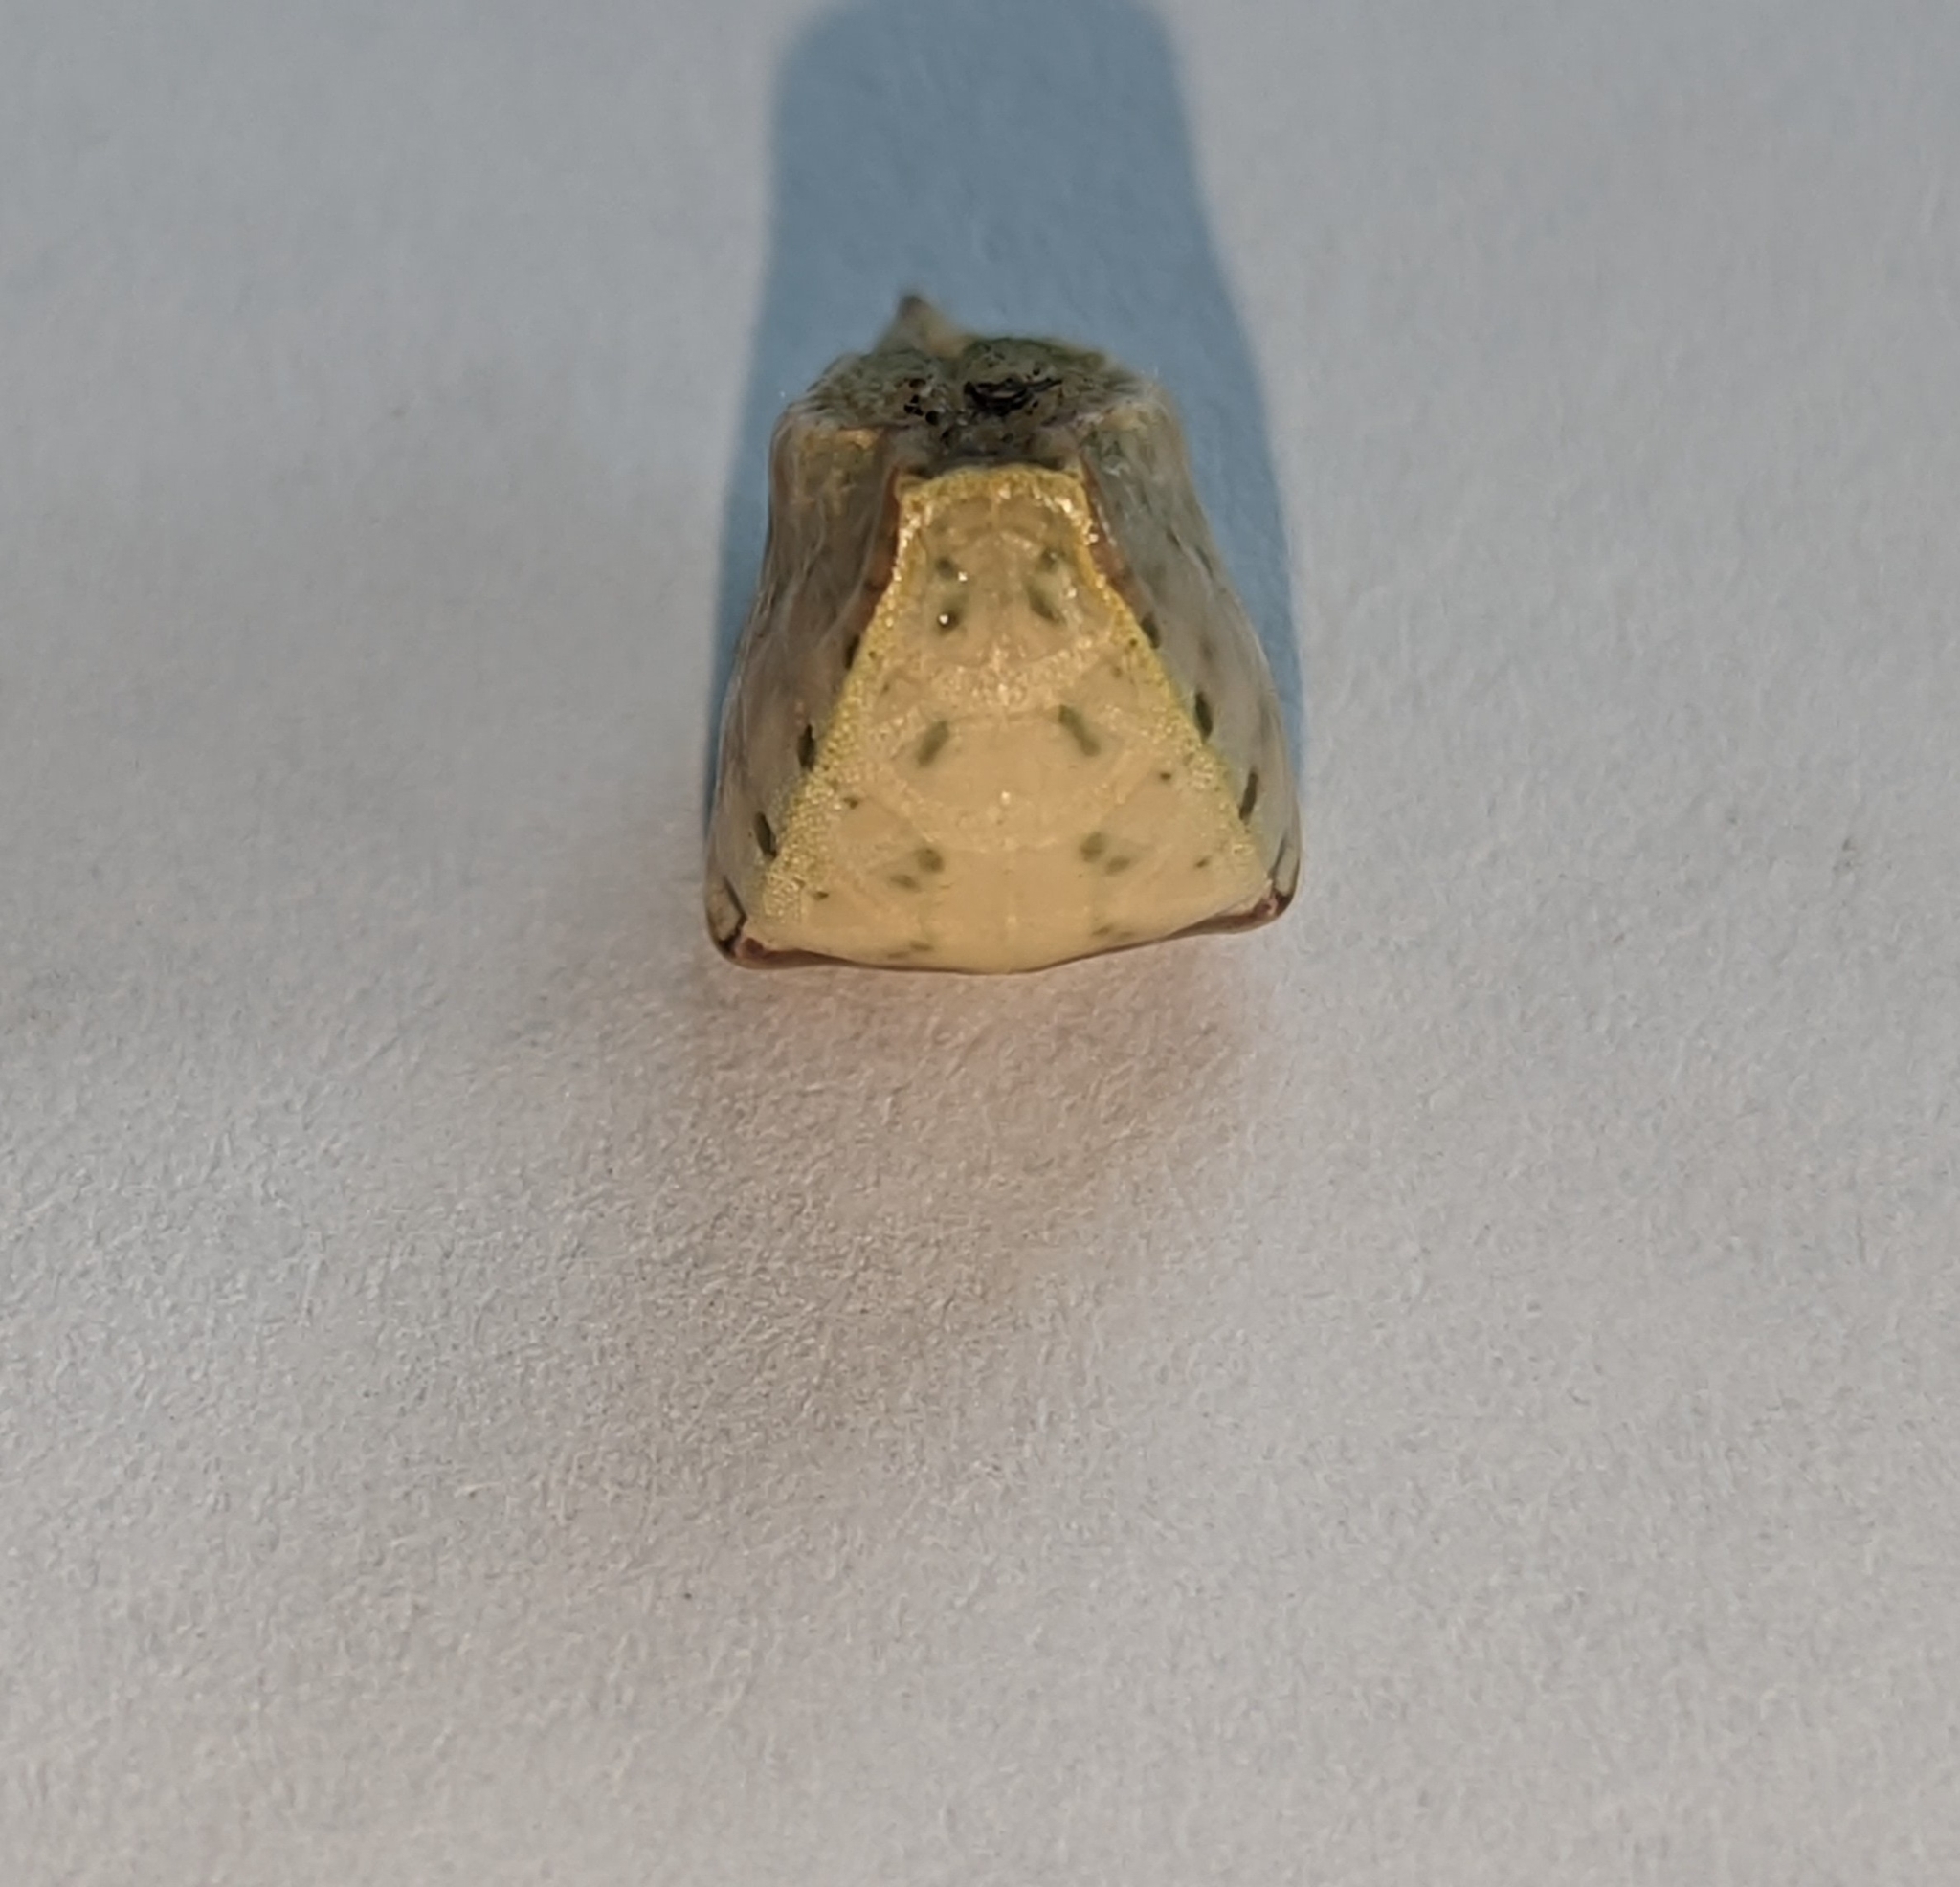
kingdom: Animalia
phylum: Arthropoda
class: Insecta
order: Lepidoptera
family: Limacodidae
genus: Prolimacodes
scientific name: Prolimacodes badia
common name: Skiff moth
